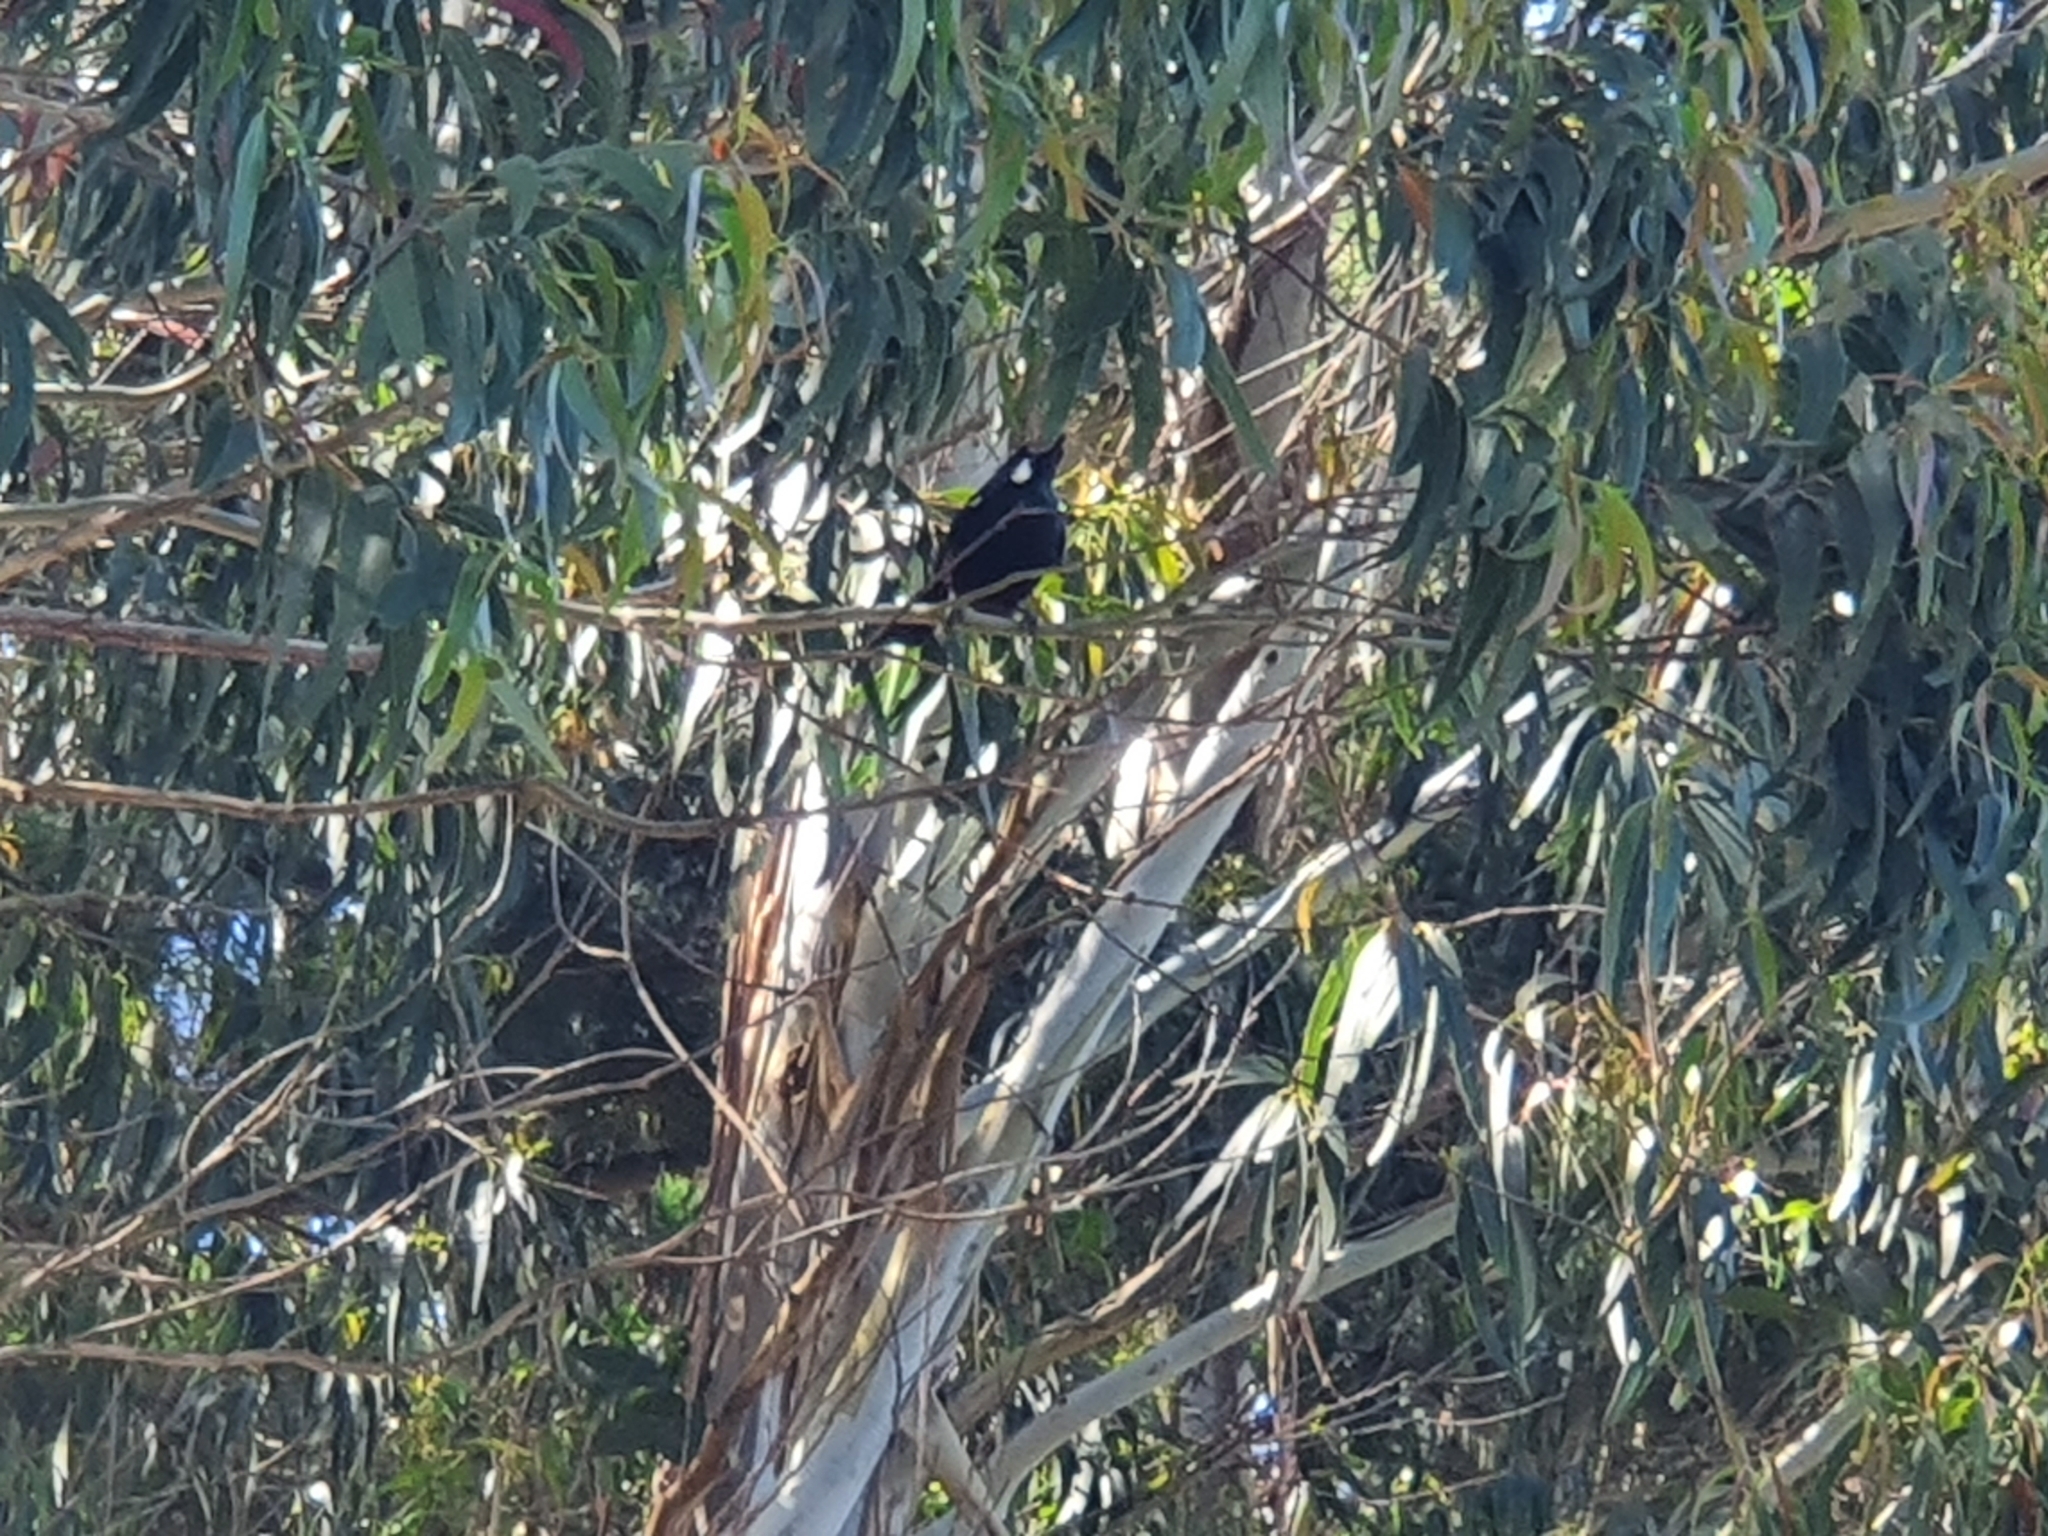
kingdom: Animalia
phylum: Chordata
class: Aves
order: Passeriformes
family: Meliphagidae
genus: Prosthemadera
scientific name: Prosthemadera novaeseelandiae
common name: Tui
